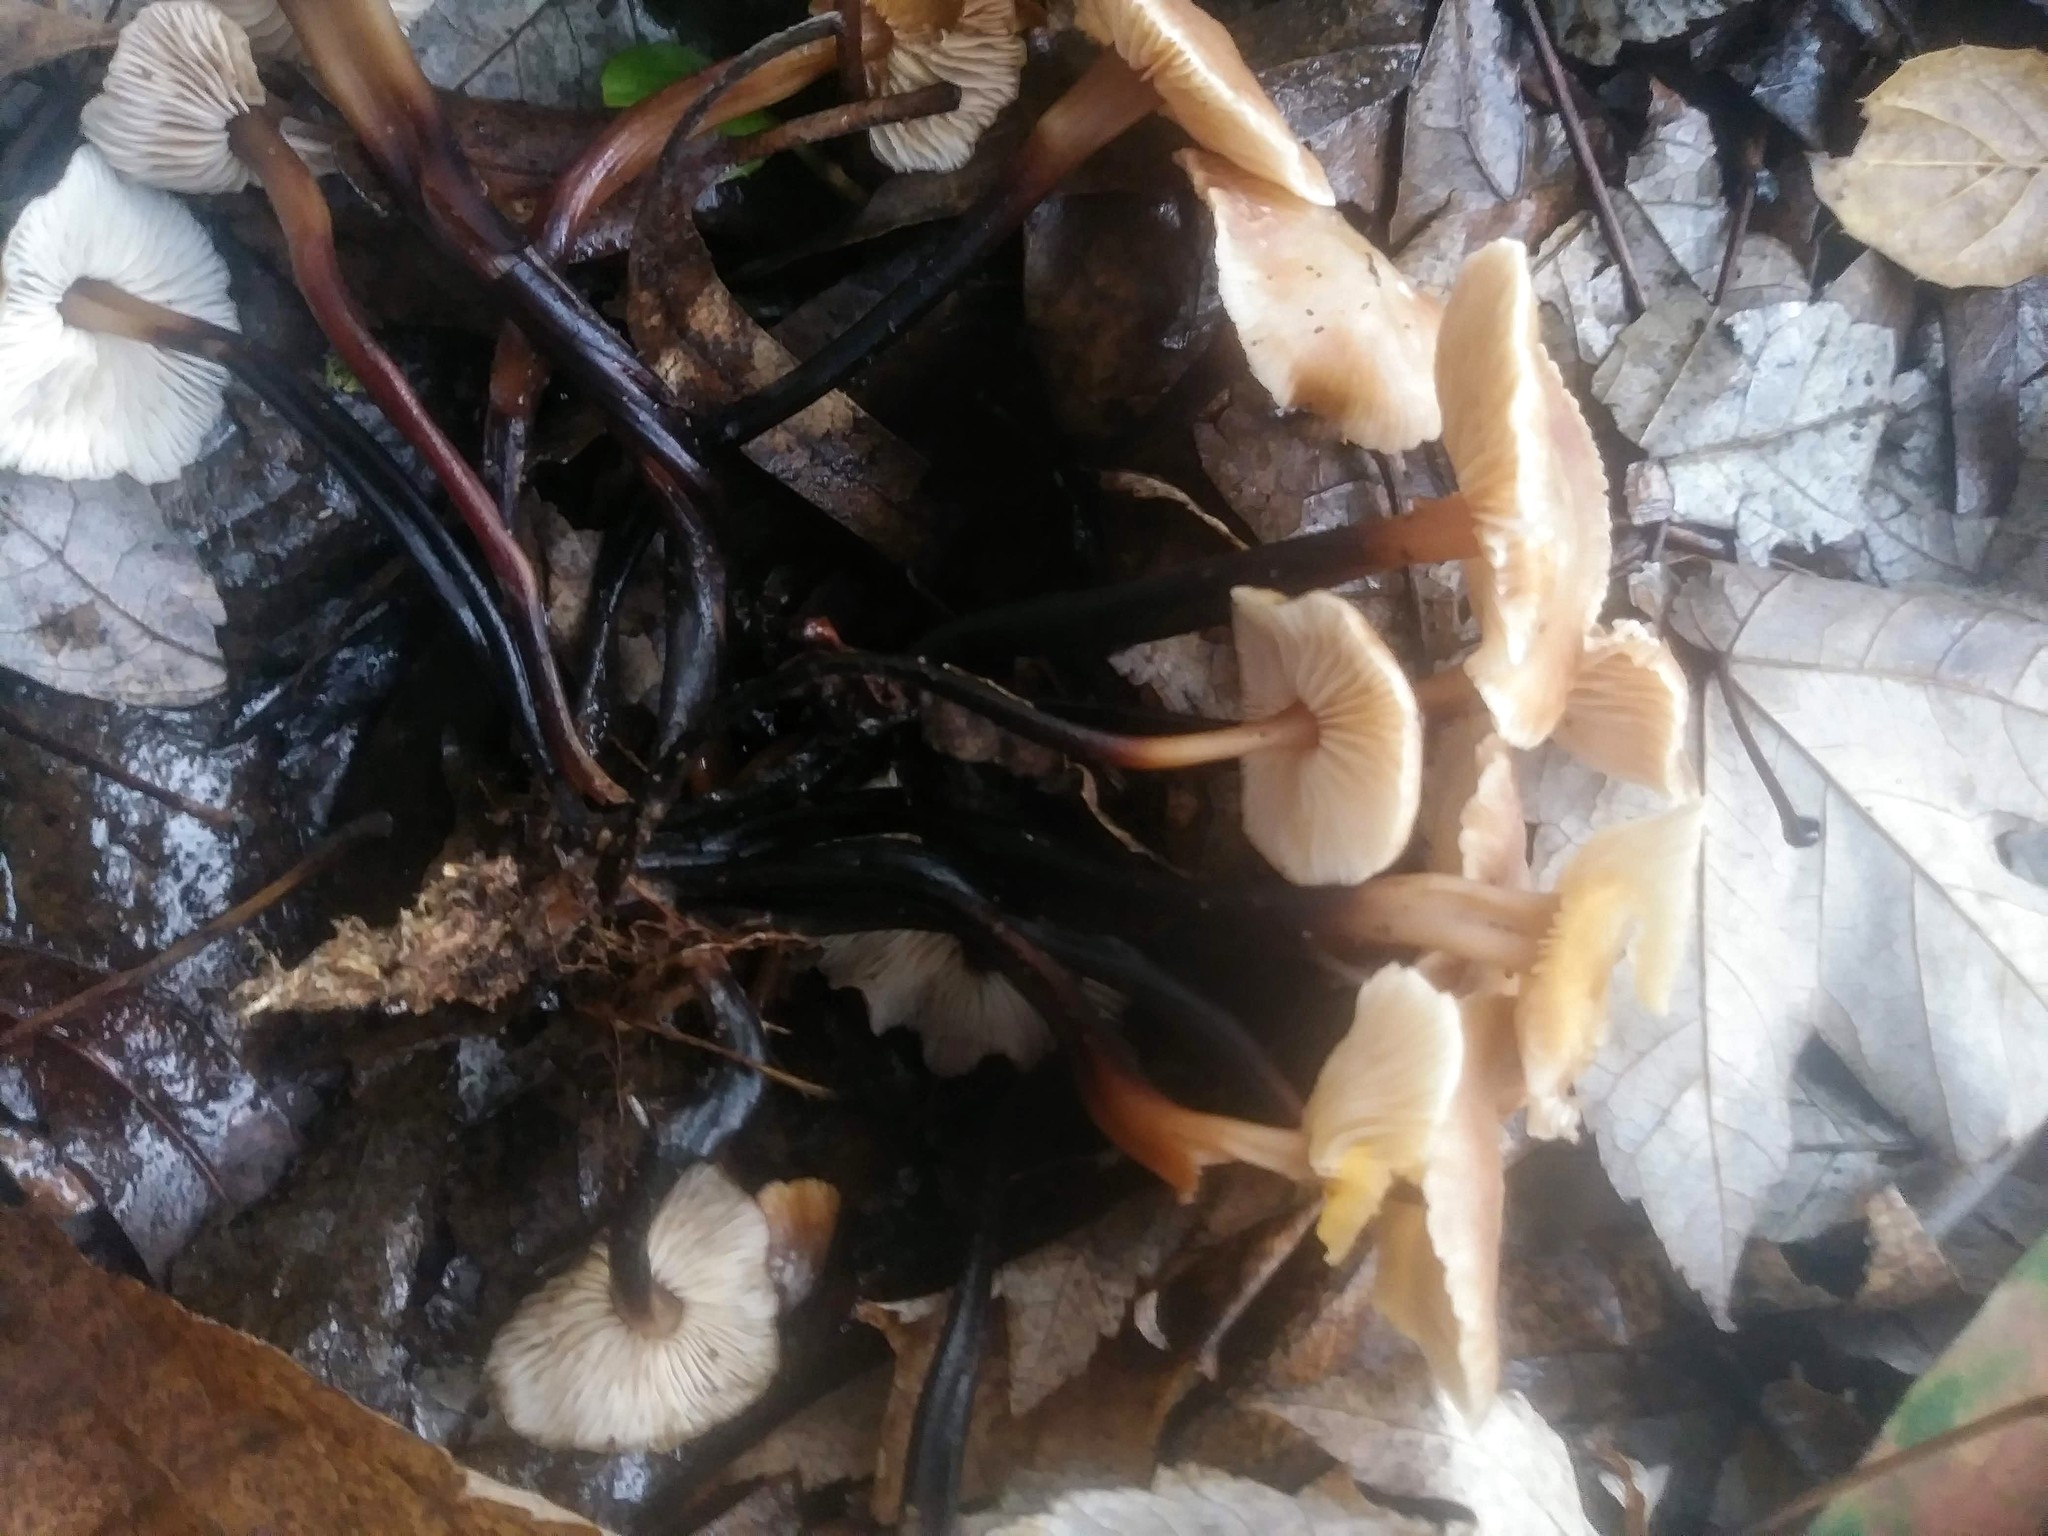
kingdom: Fungi
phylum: Basidiomycota
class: Agaricomycetes
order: Agaricales
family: Omphalotaceae
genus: Gymnopus
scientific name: Gymnopus brassicolens
